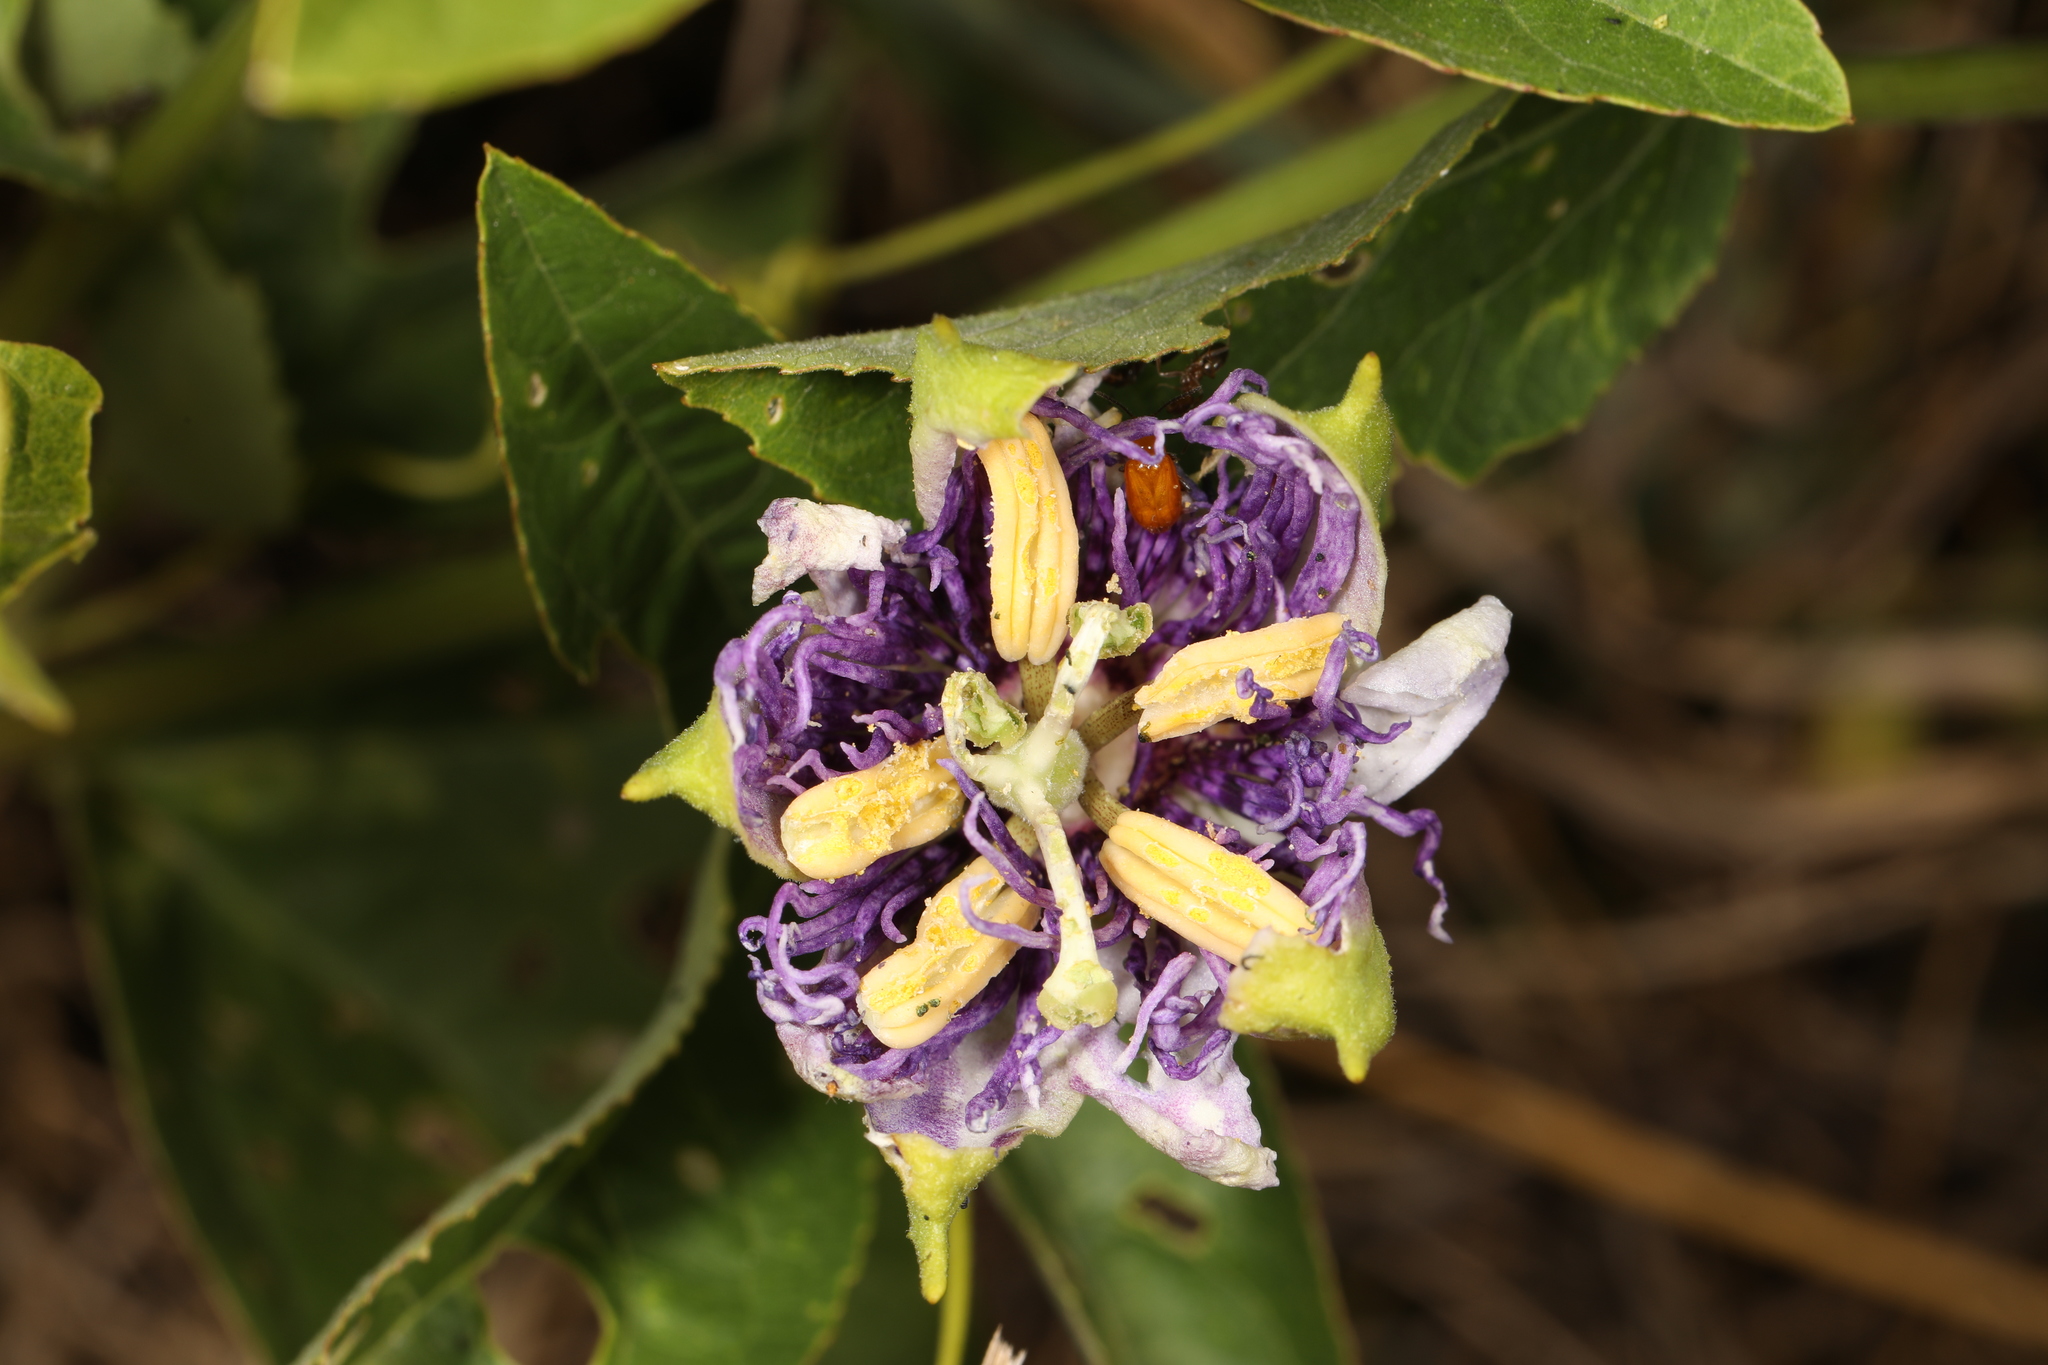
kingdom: Plantae
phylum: Tracheophyta
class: Magnoliopsida
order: Malpighiales
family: Passifloraceae
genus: Passiflora
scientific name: Passiflora incarnata
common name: Apricot-vine
